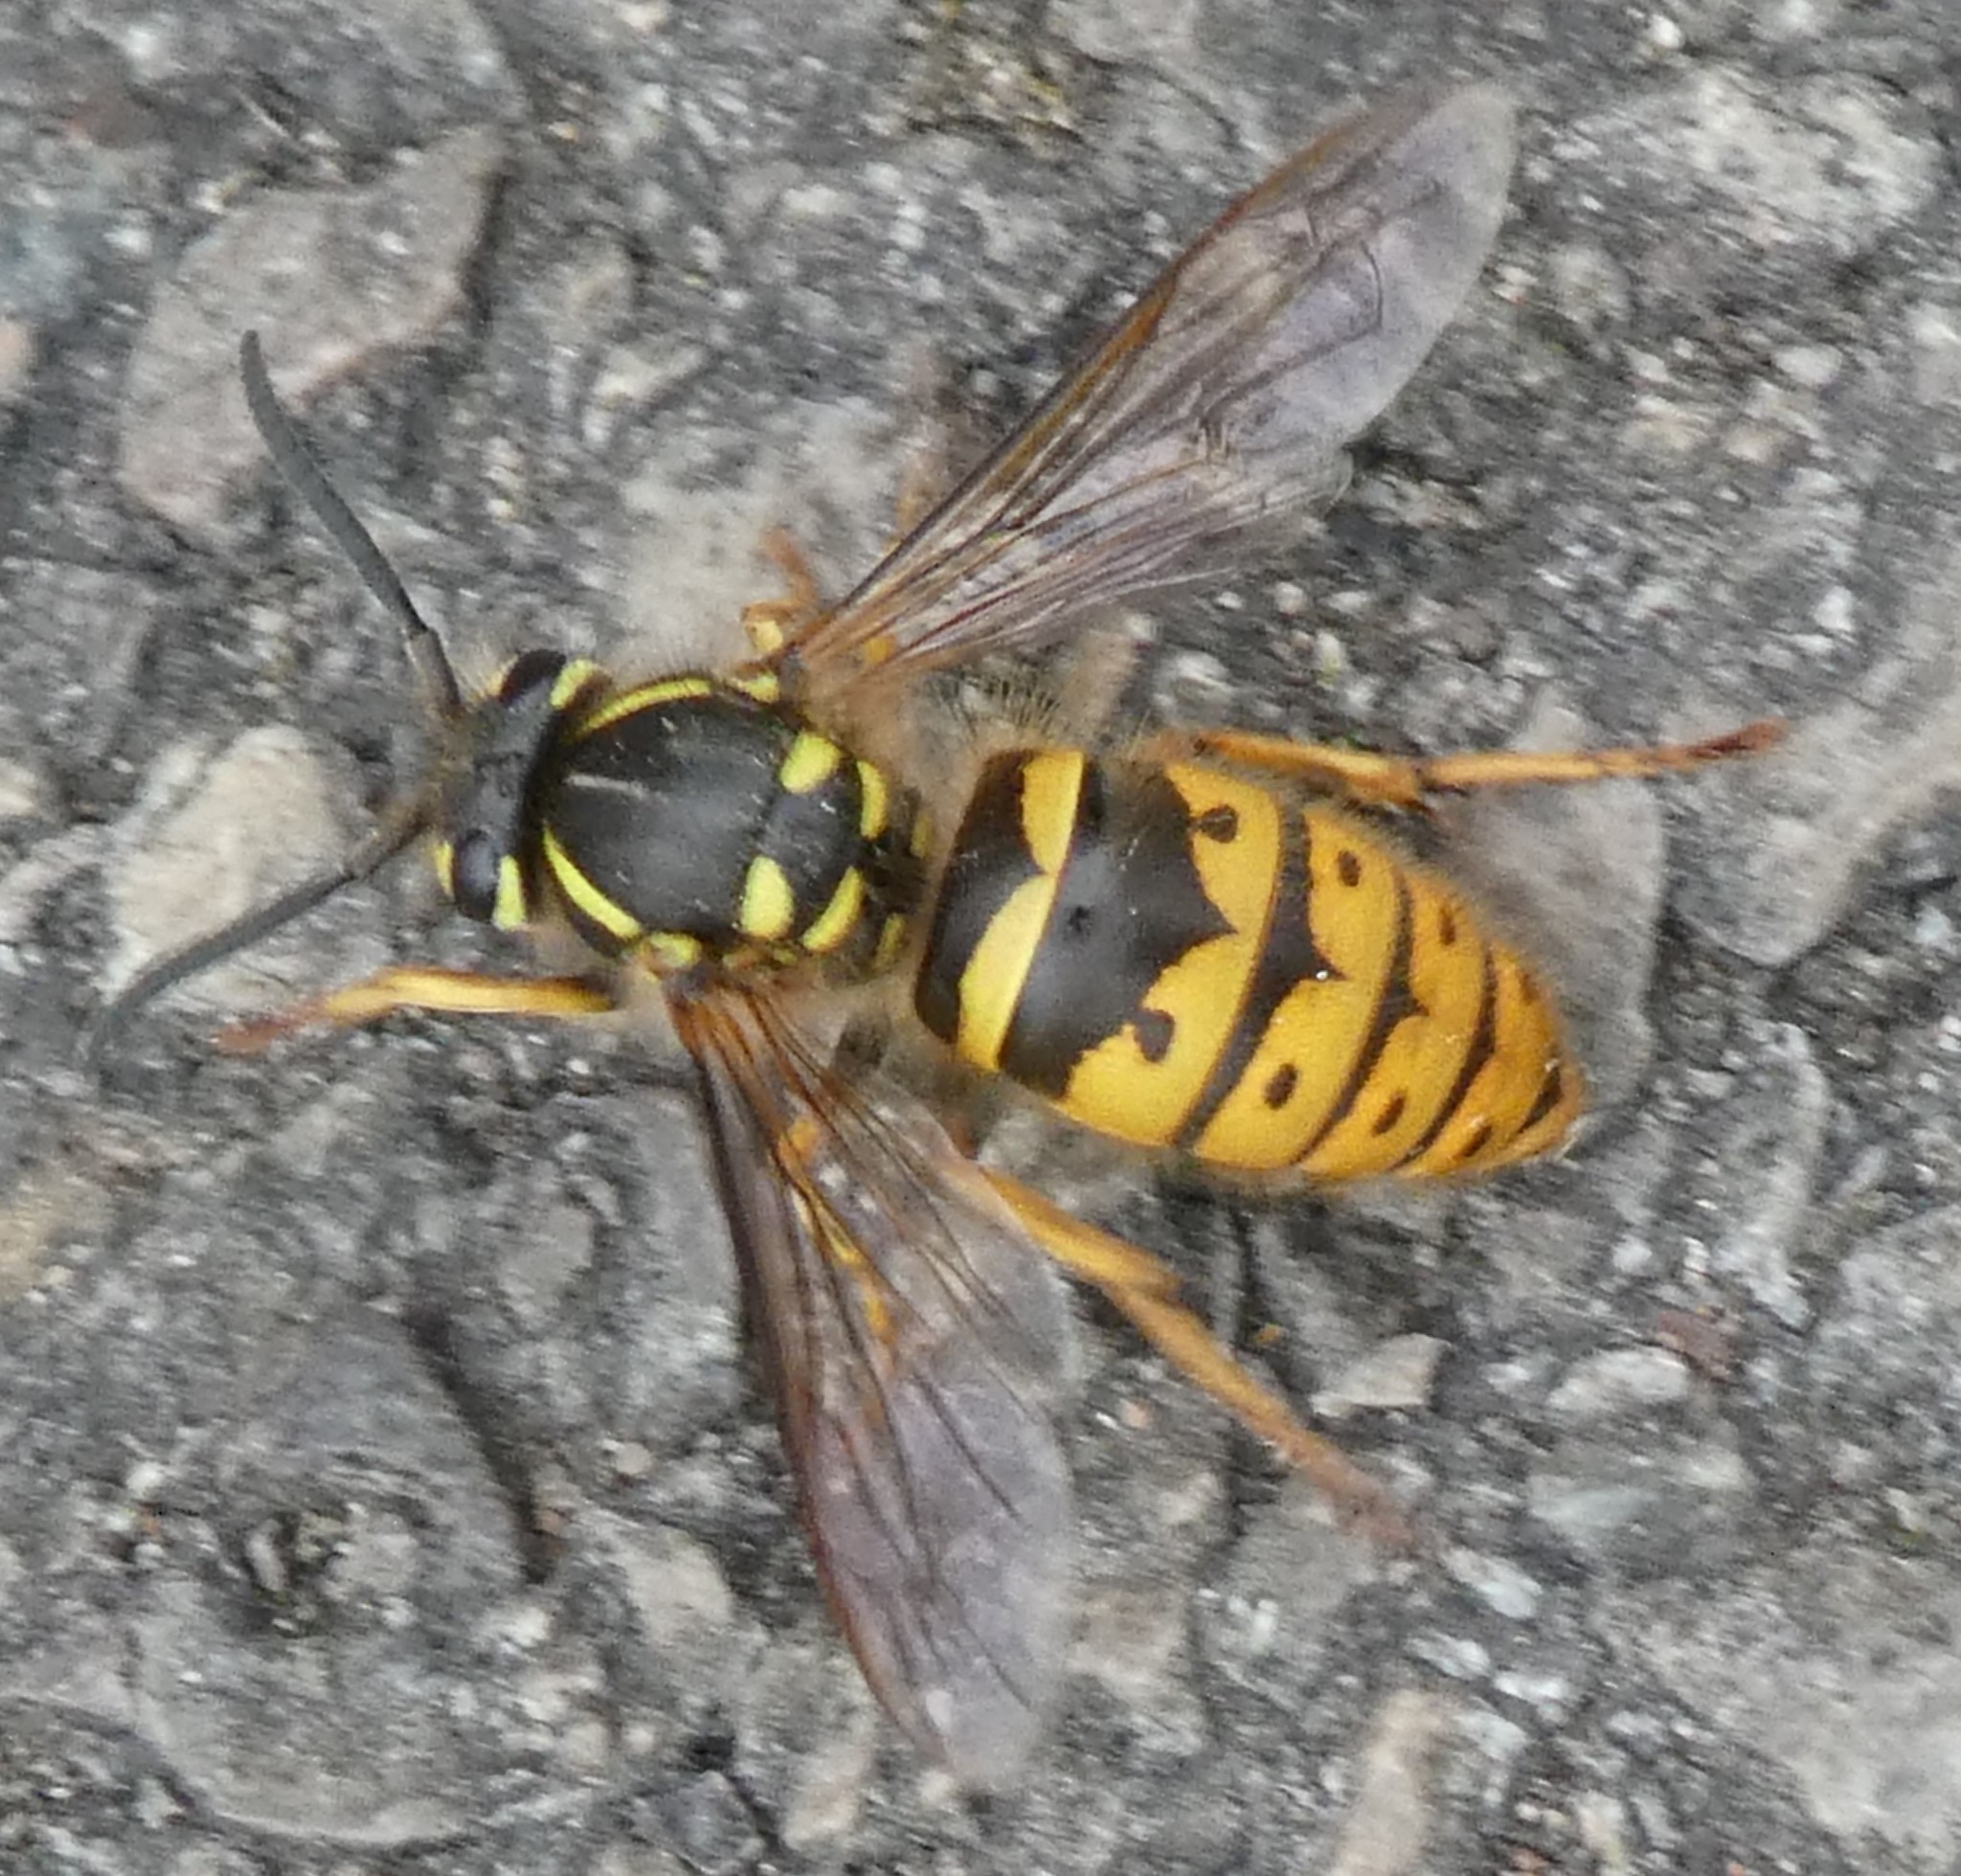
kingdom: Animalia
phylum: Arthropoda
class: Insecta
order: Hymenoptera
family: Vespidae
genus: Vespula
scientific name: Vespula vulgaris
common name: Common wasp
